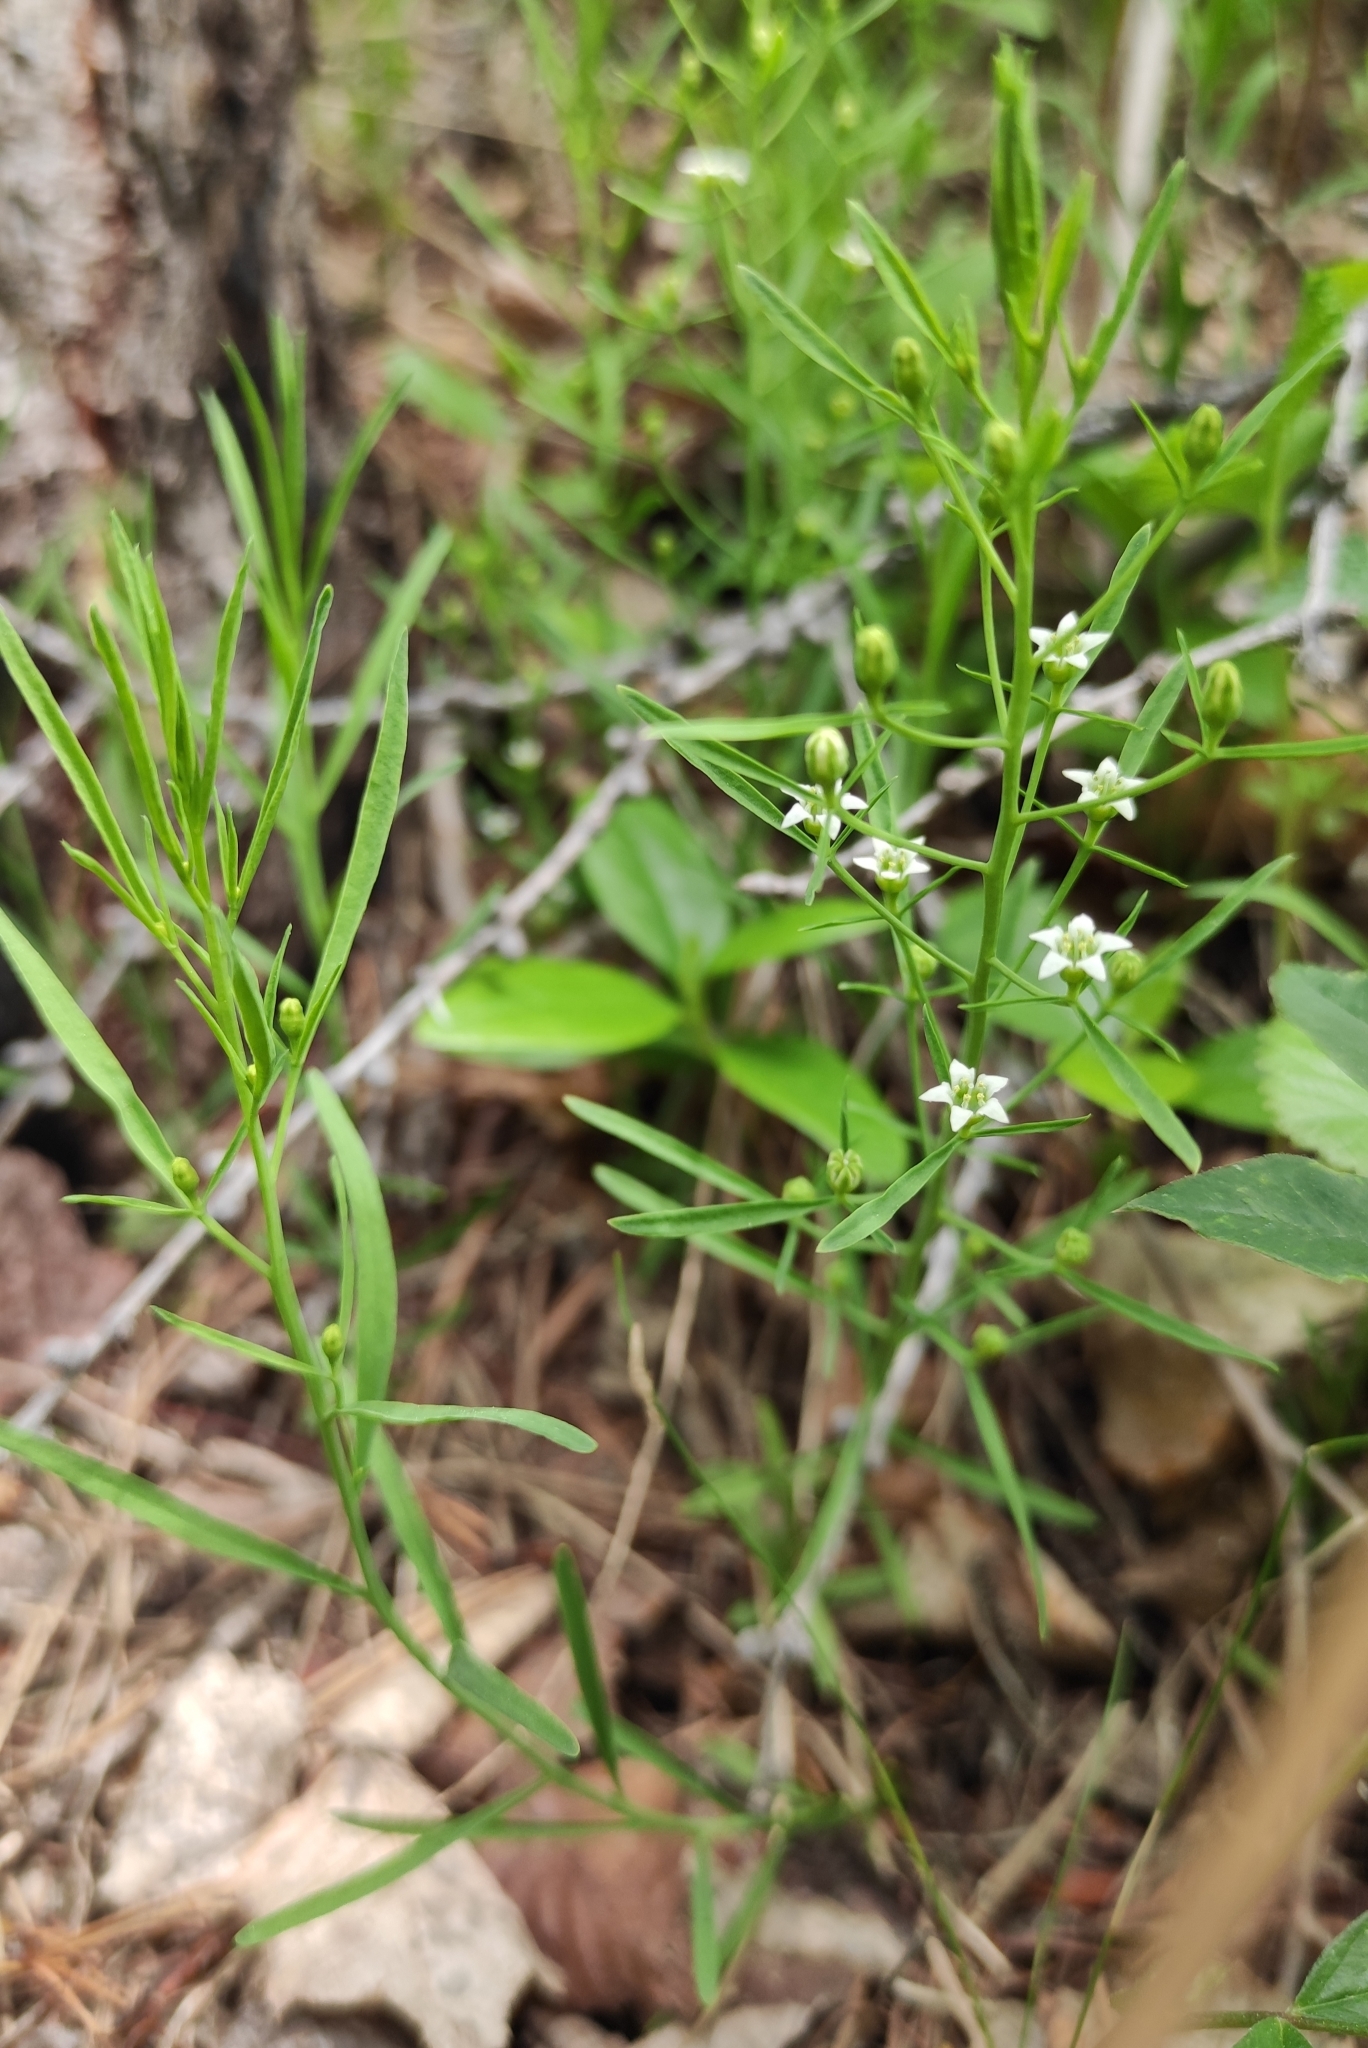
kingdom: Plantae
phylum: Tracheophyta
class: Magnoliopsida
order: Santalales
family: Thesiaceae
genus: Thesium
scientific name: Thesium repens
